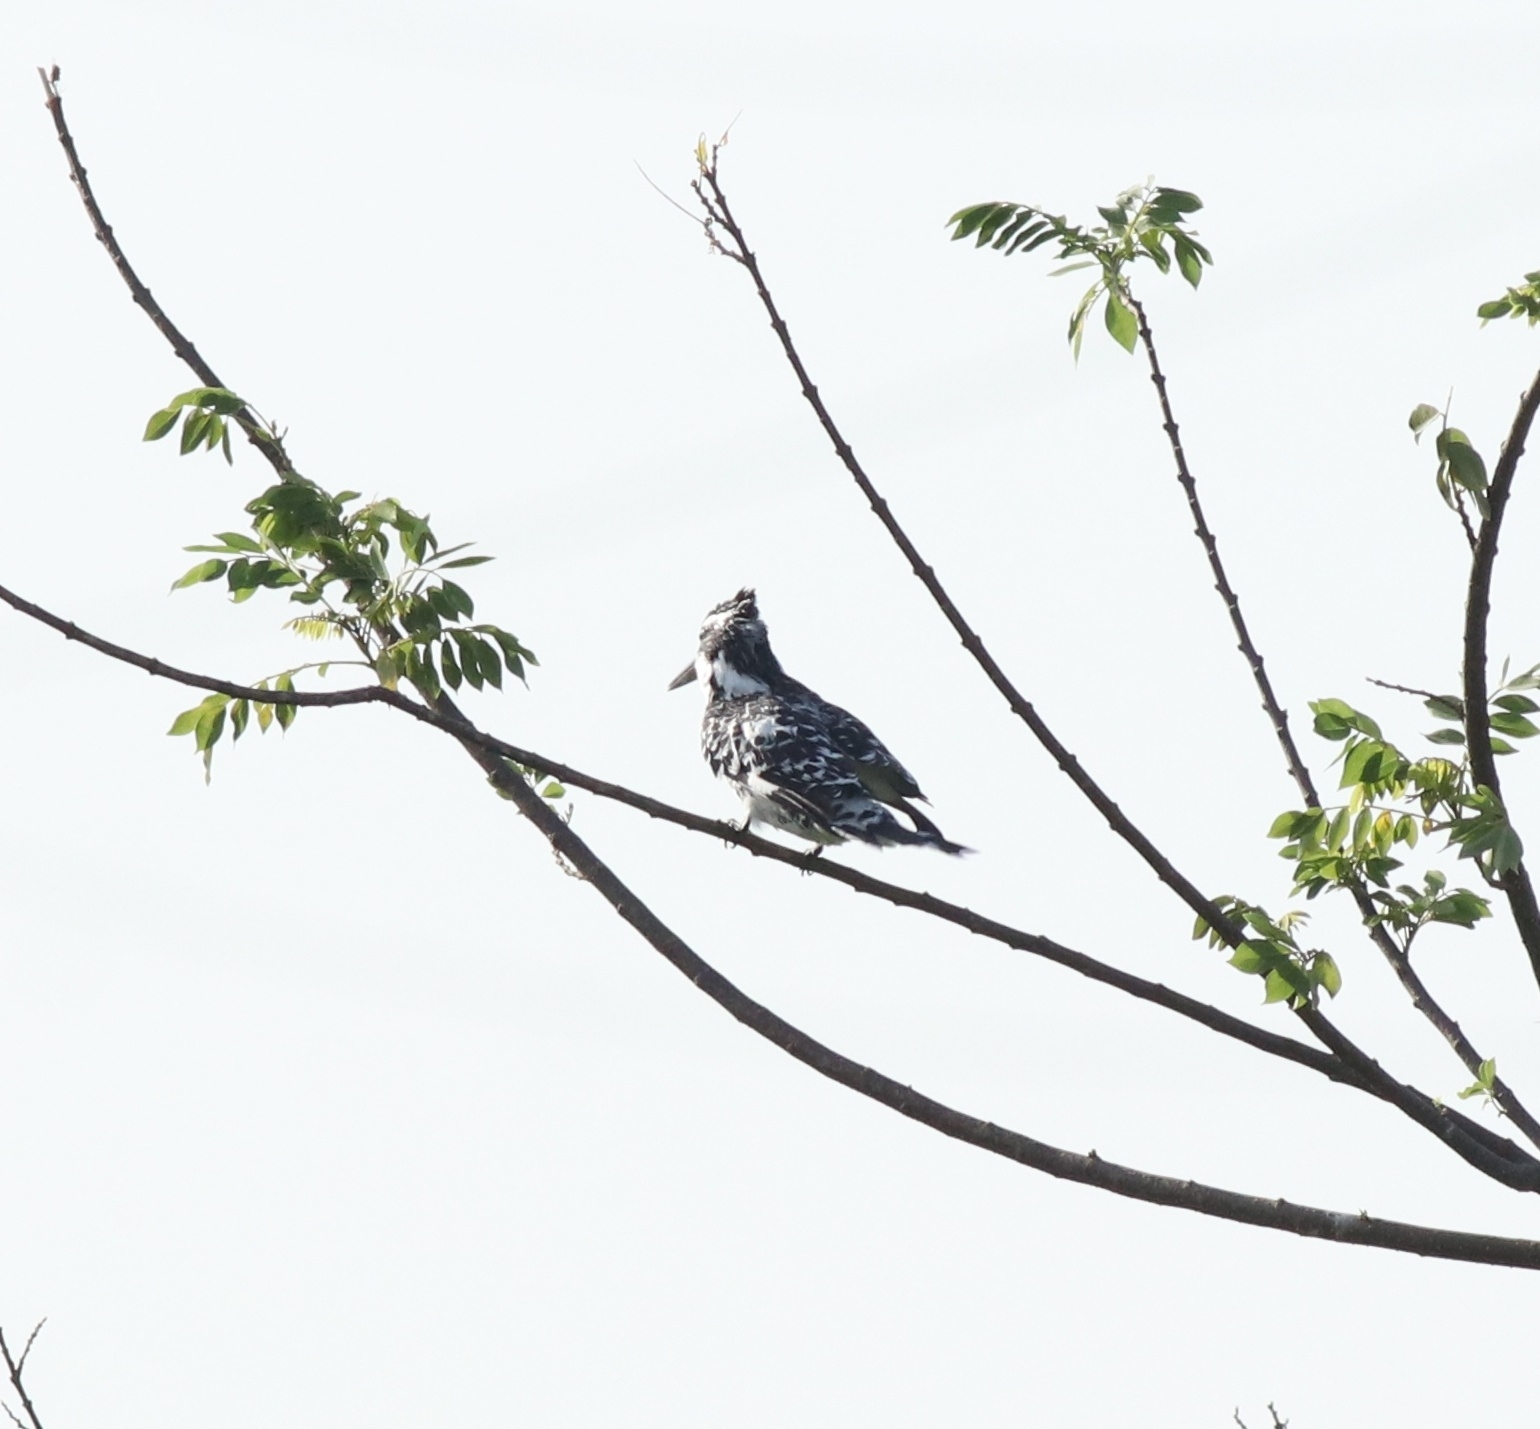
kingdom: Animalia
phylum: Chordata
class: Aves
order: Coraciiformes
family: Alcedinidae
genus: Ceryle
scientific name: Ceryle rudis
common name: Pied kingfisher
